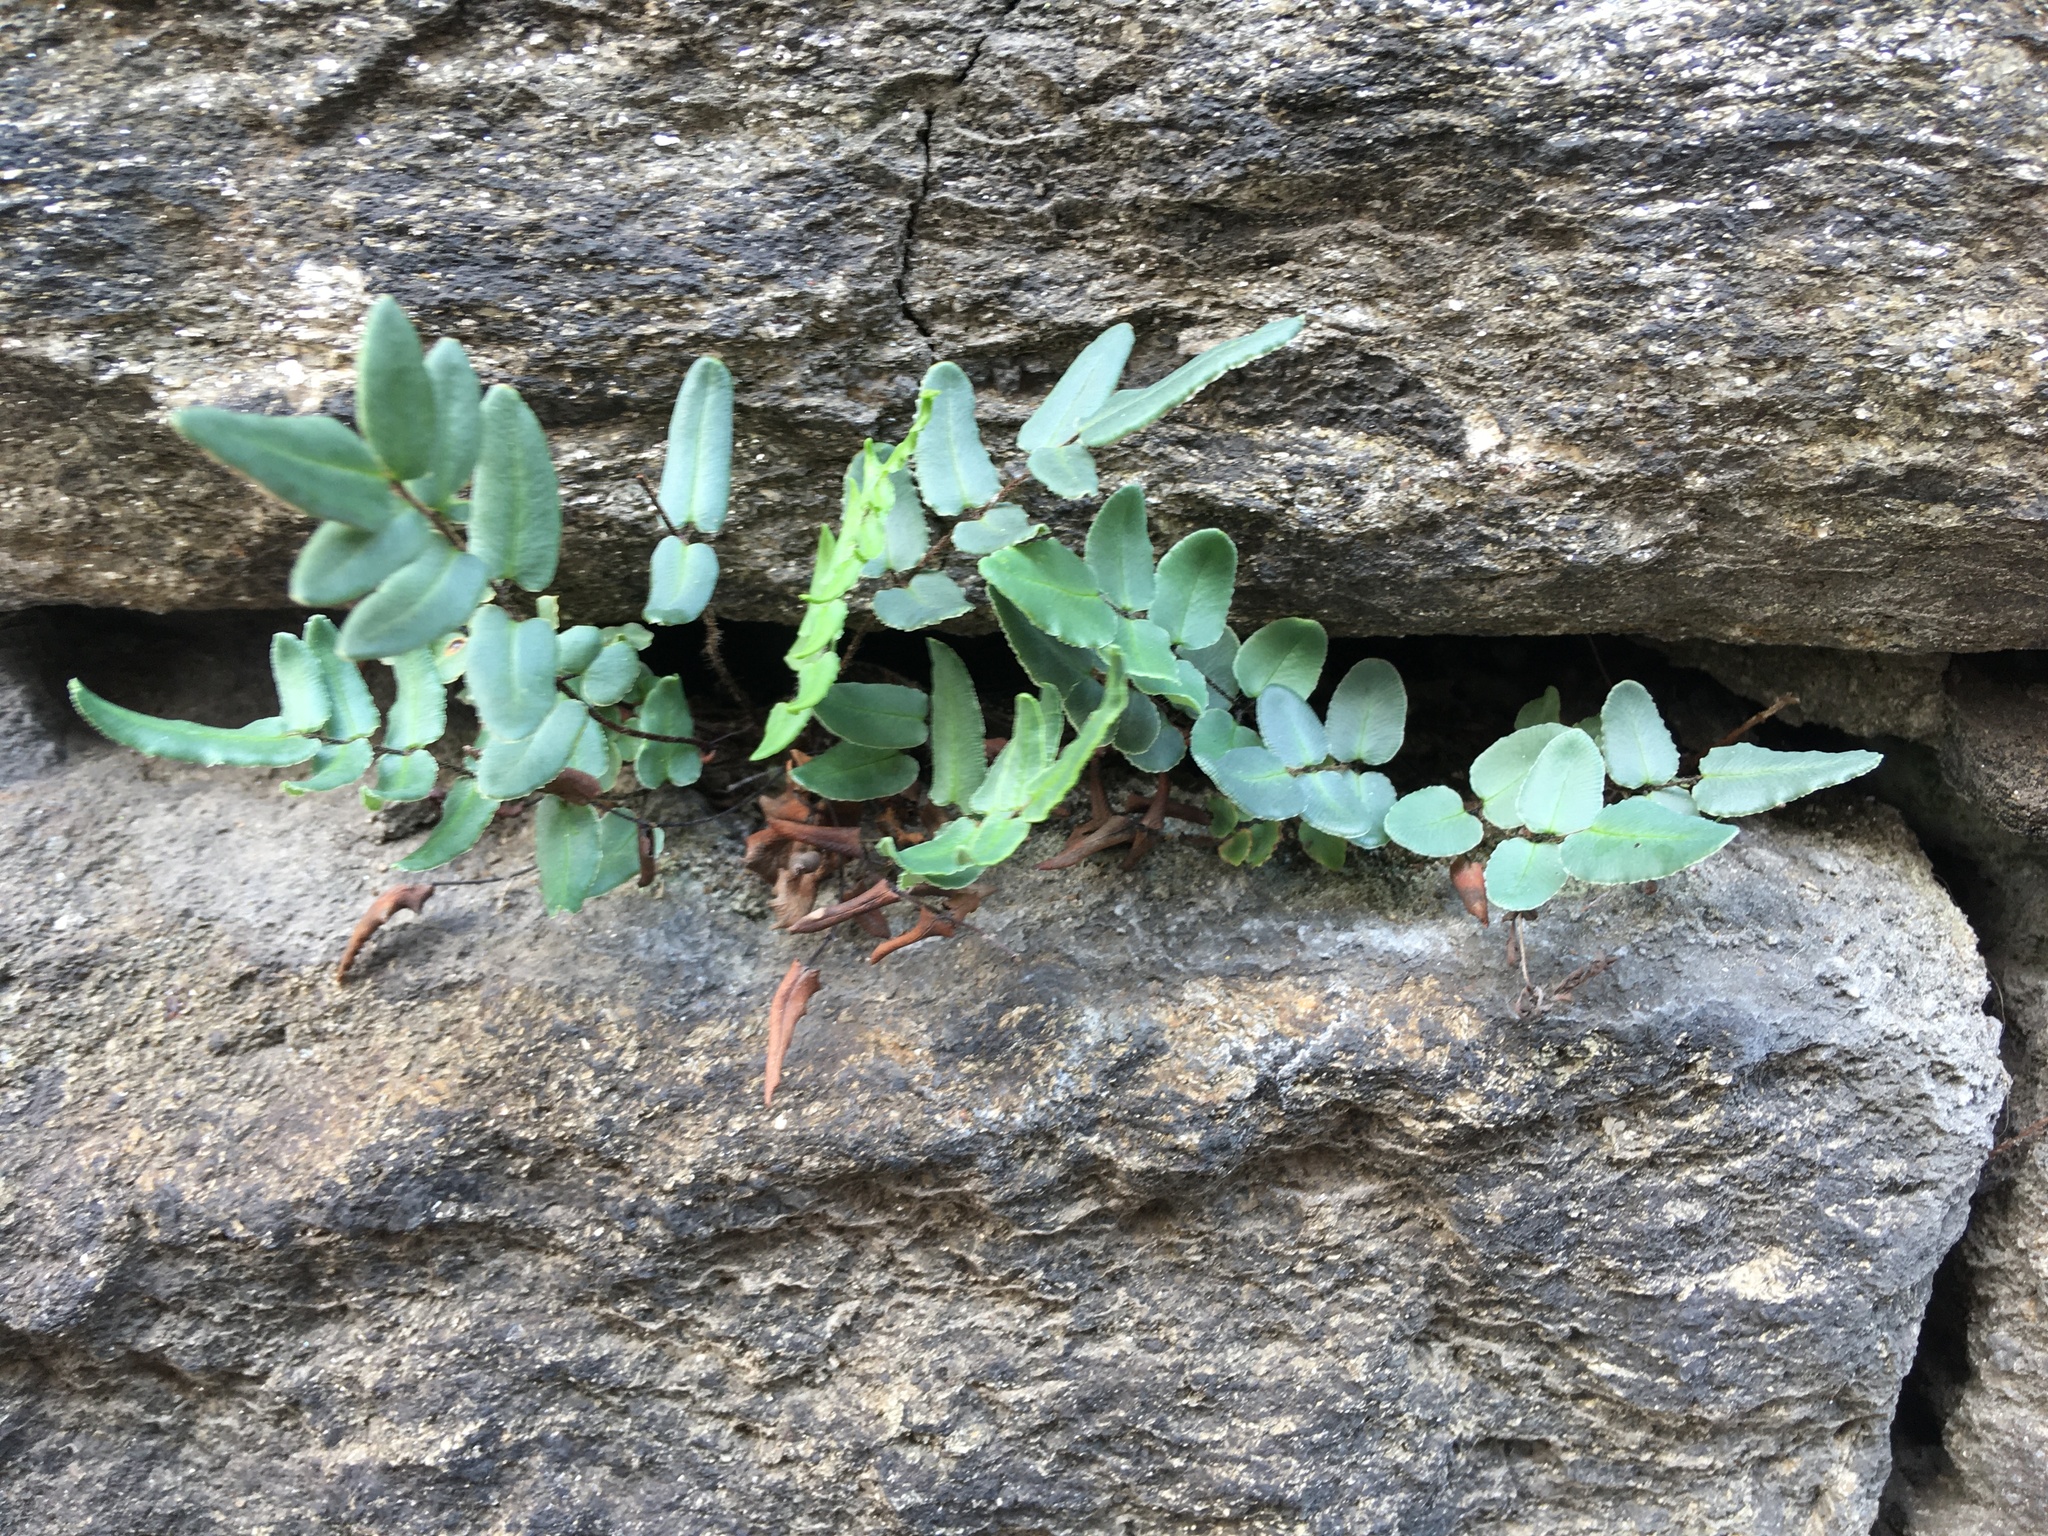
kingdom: Plantae
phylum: Tracheophyta
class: Polypodiopsida
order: Polypodiales
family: Pteridaceae
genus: Pellaea
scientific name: Pellaea atropurpurea
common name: Hairy cliffbrake
